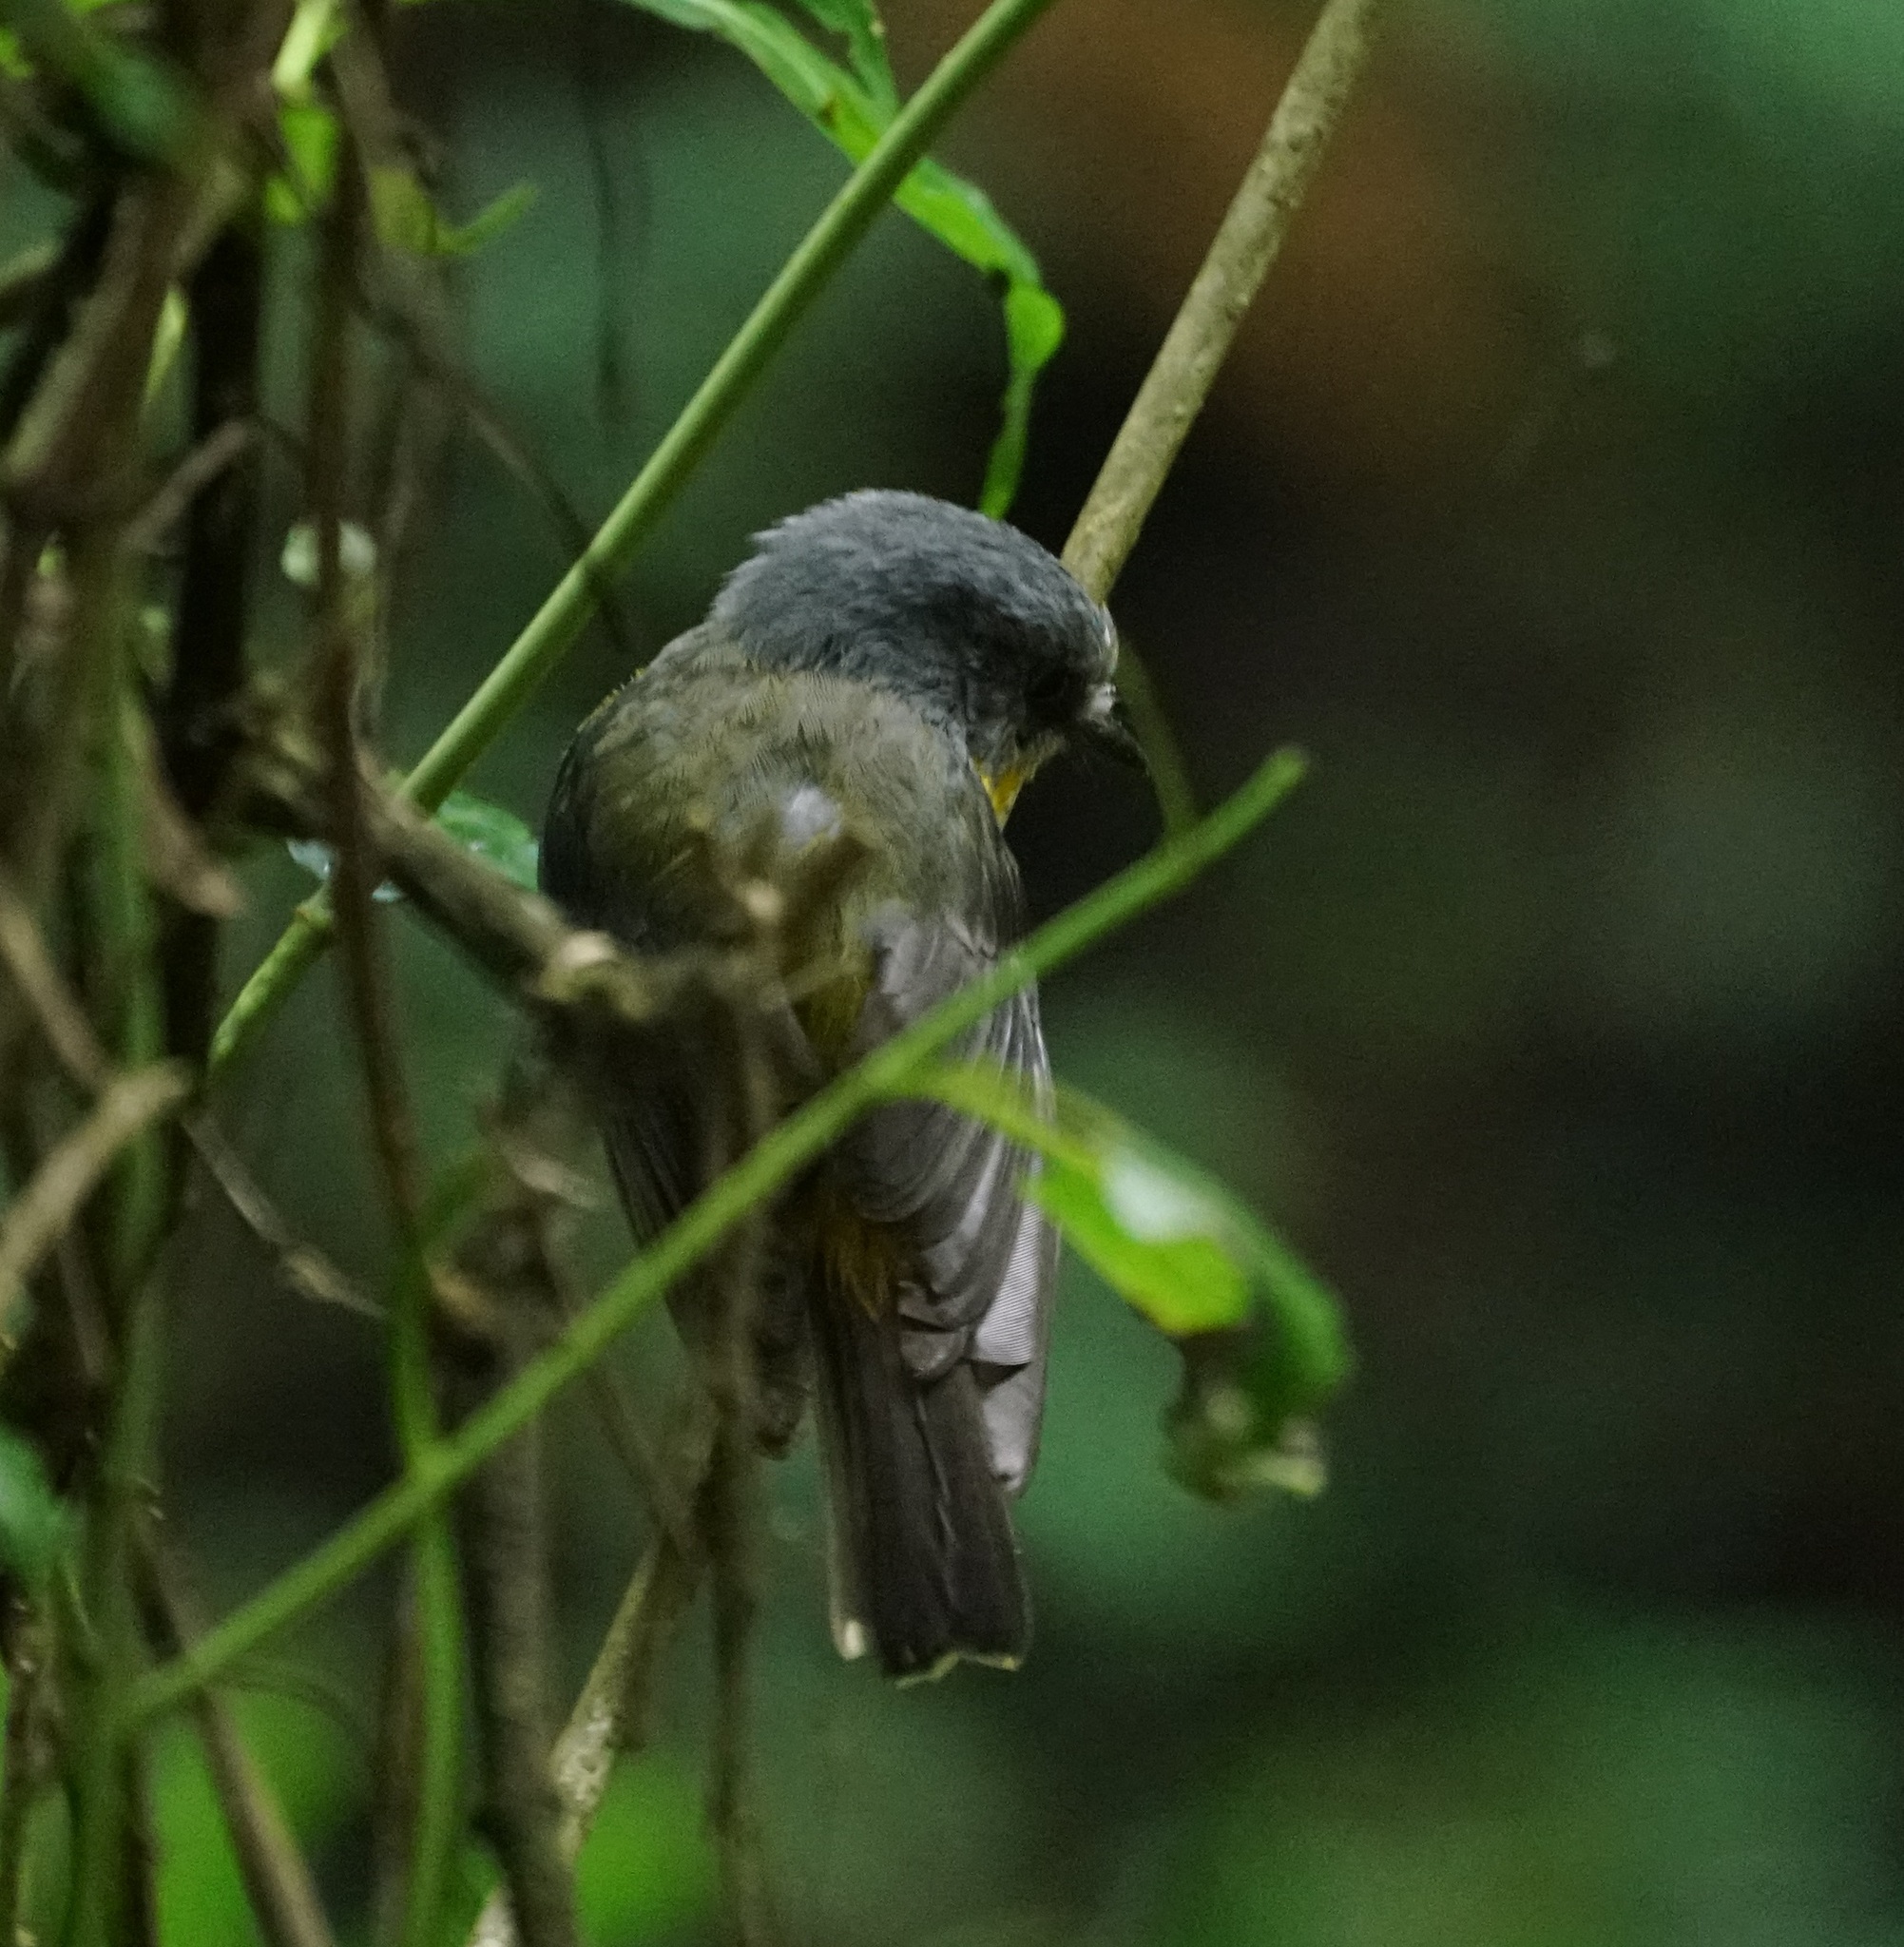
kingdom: Animalia
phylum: Chordata
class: Aves
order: Passeriformes
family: Petroicidae
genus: Eopsaltria
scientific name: Eopsaltria australis
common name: Eastern yellow robin
